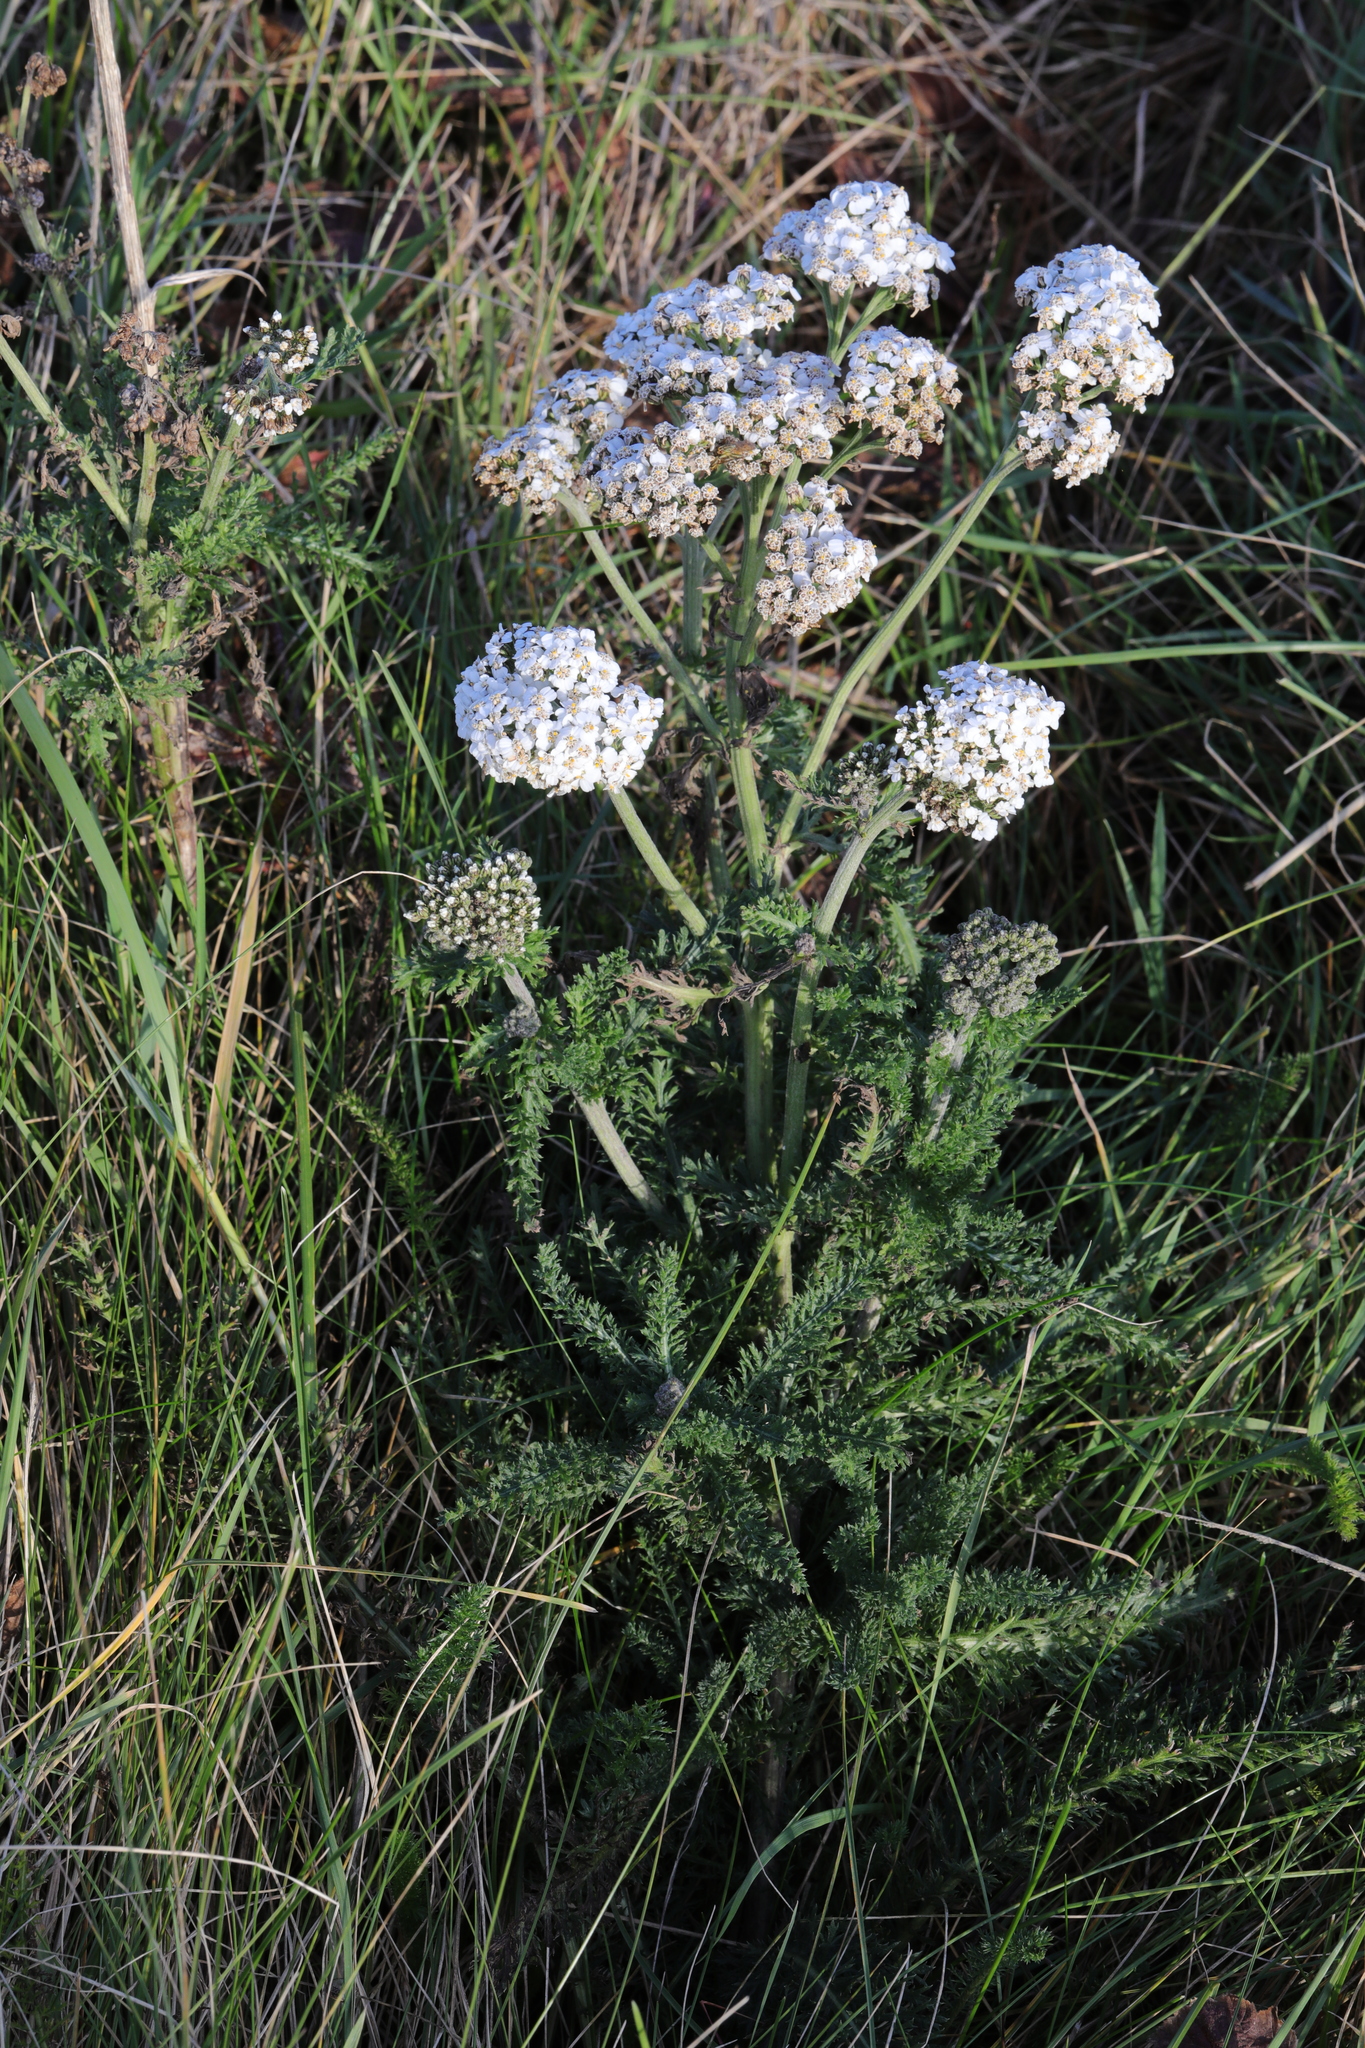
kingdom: Plantae
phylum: Tracheophyta
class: Magnoliopsida
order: Asterales
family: Asteraceae
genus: Achillea
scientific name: Achillea millefolium
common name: Yarrow
